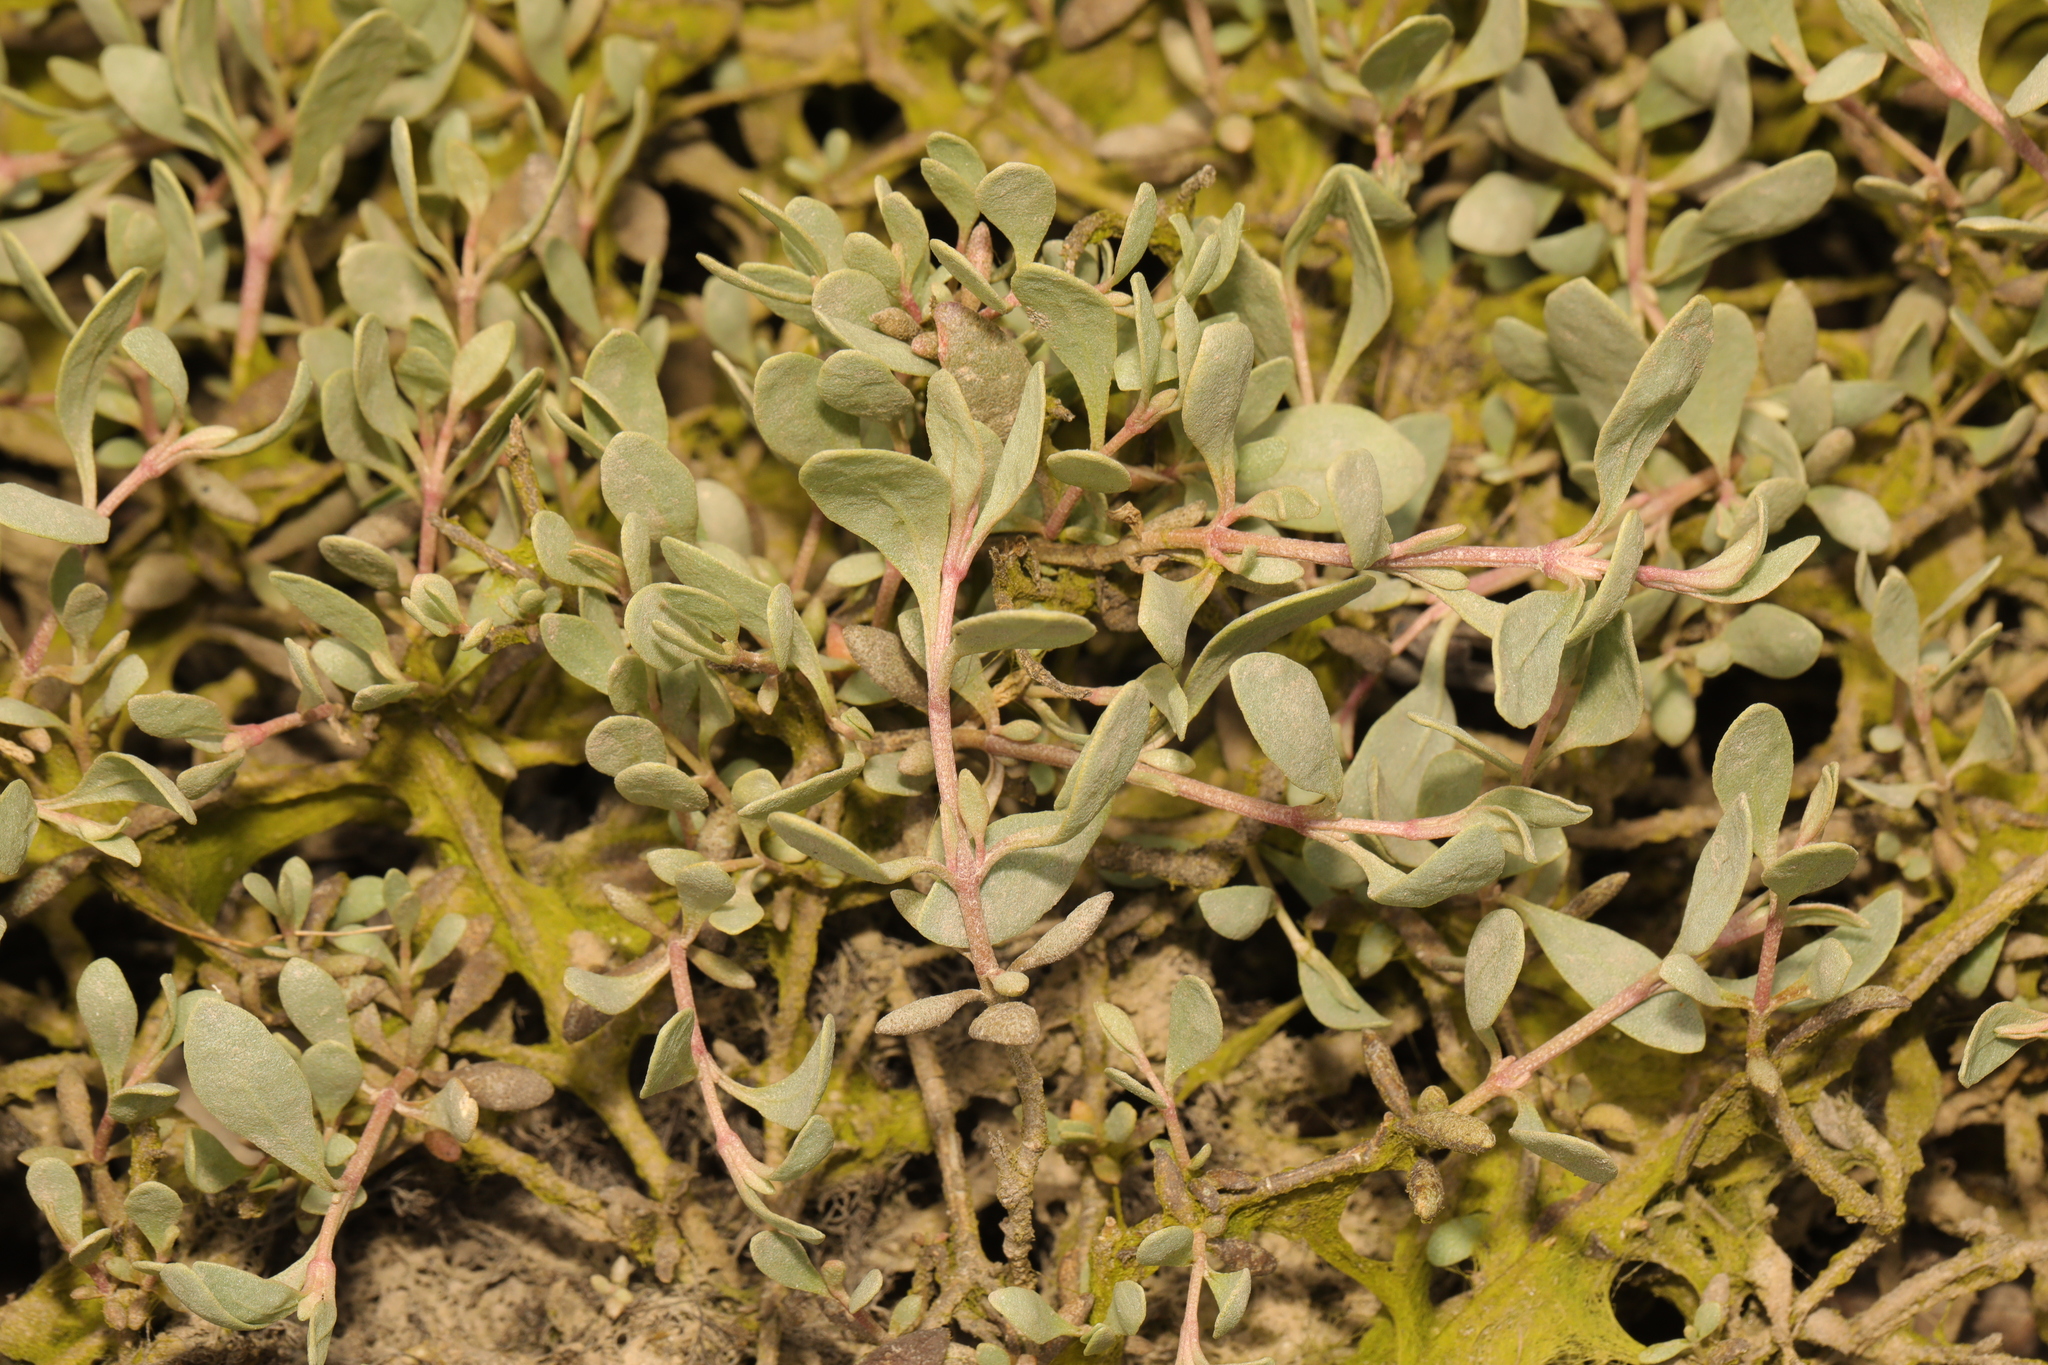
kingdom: Plantae
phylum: Tracheophyta
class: Magnoliopsida
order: Caryophyllales
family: Amaranthaceae
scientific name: Amaranthaceae
